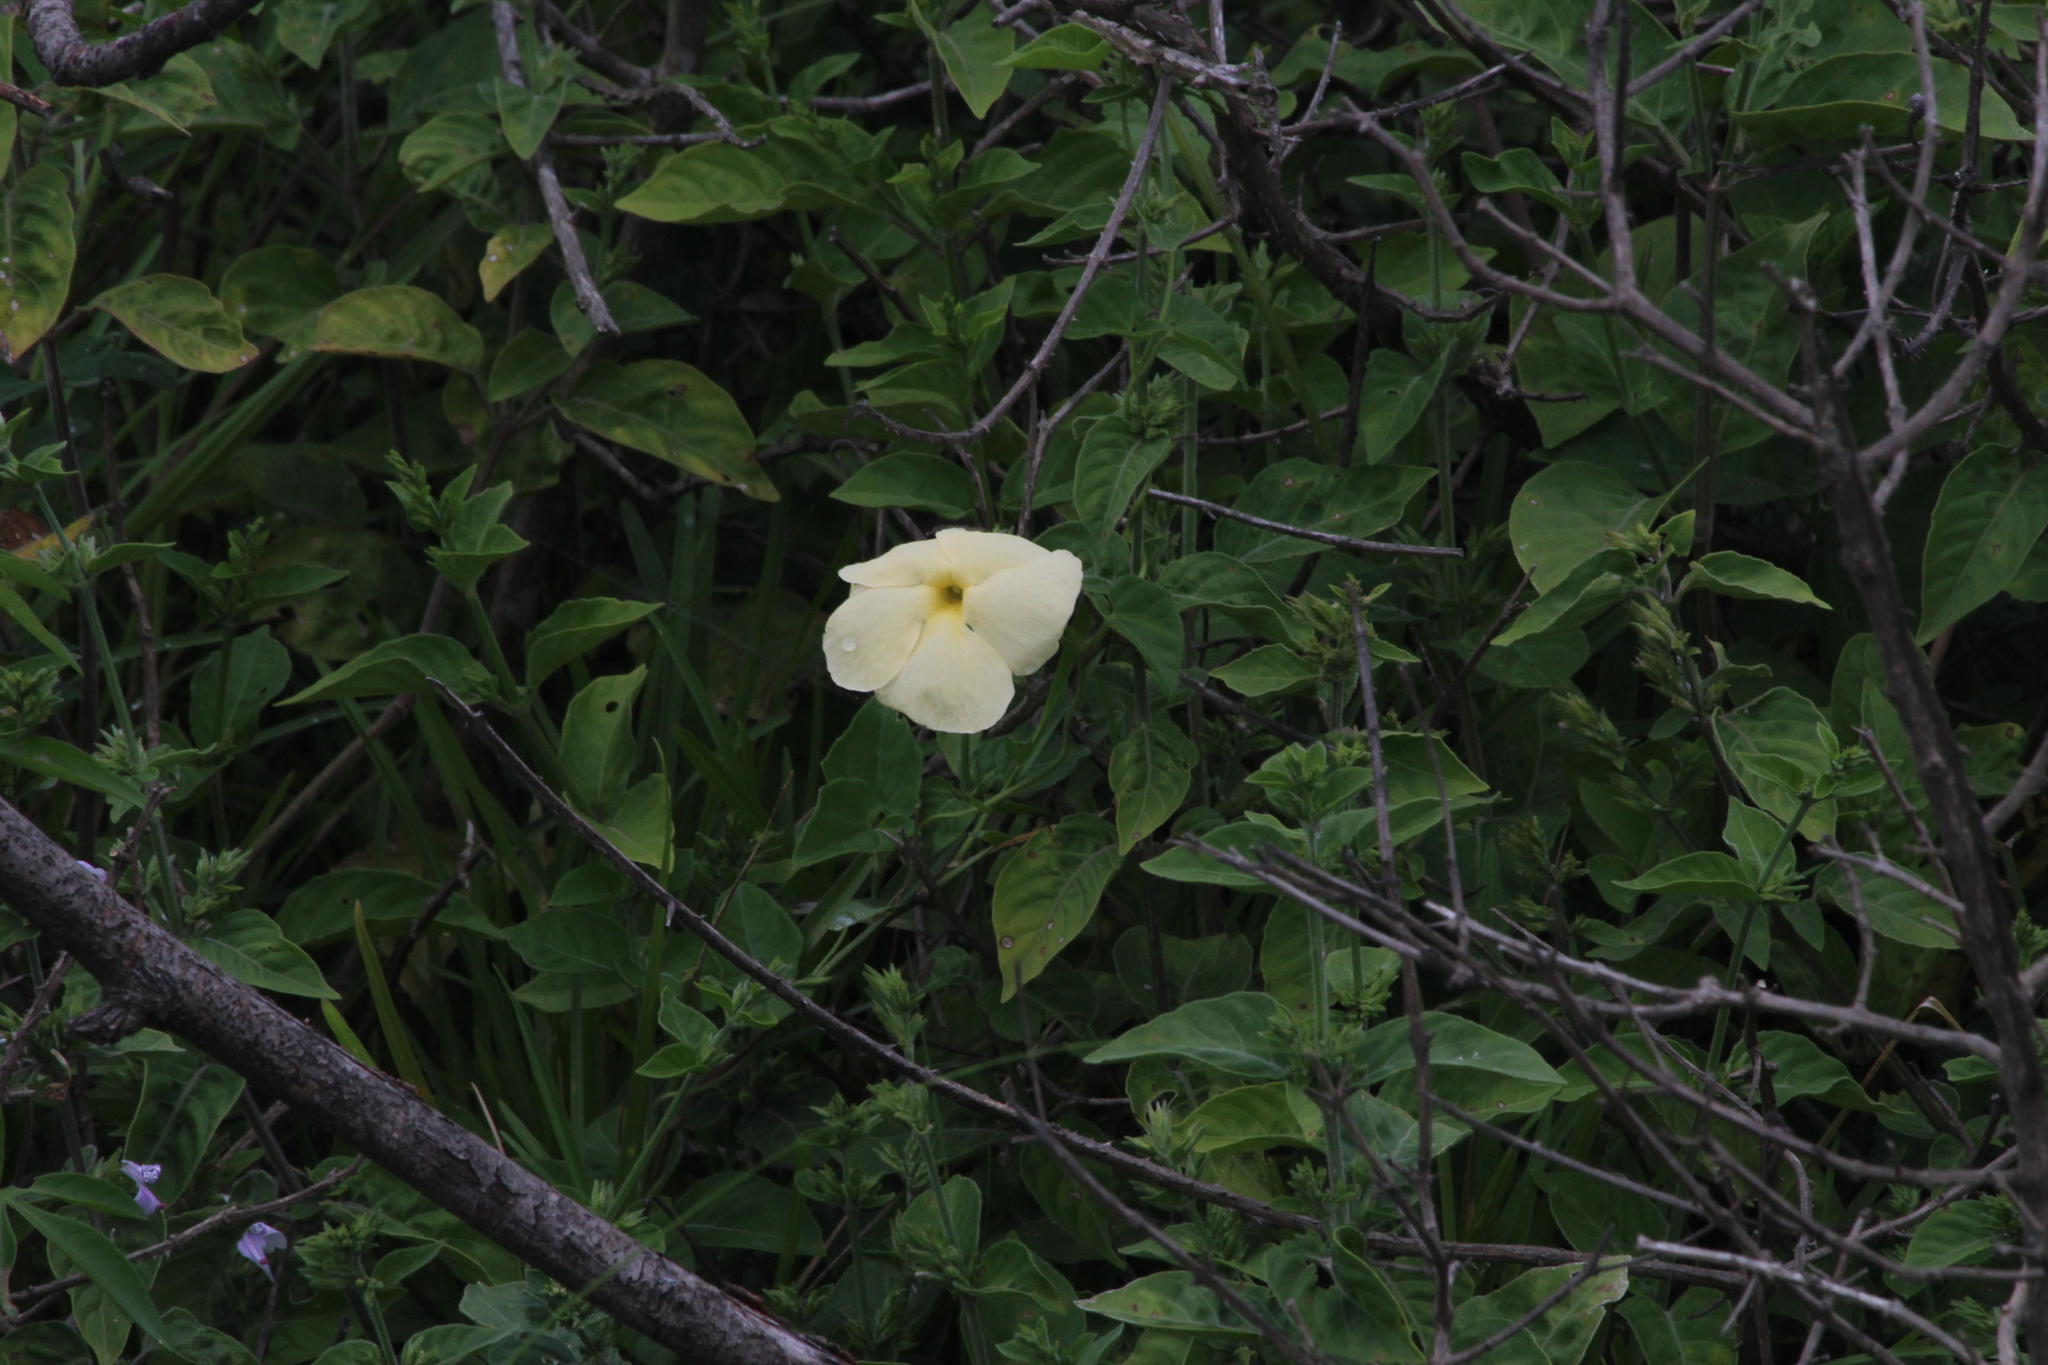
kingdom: Plantae
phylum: Tracheophyta
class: Magnoliopsida
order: Lamiales
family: Acanthaceae
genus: Thunbergia
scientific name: Thunbergia atriplicifolia
